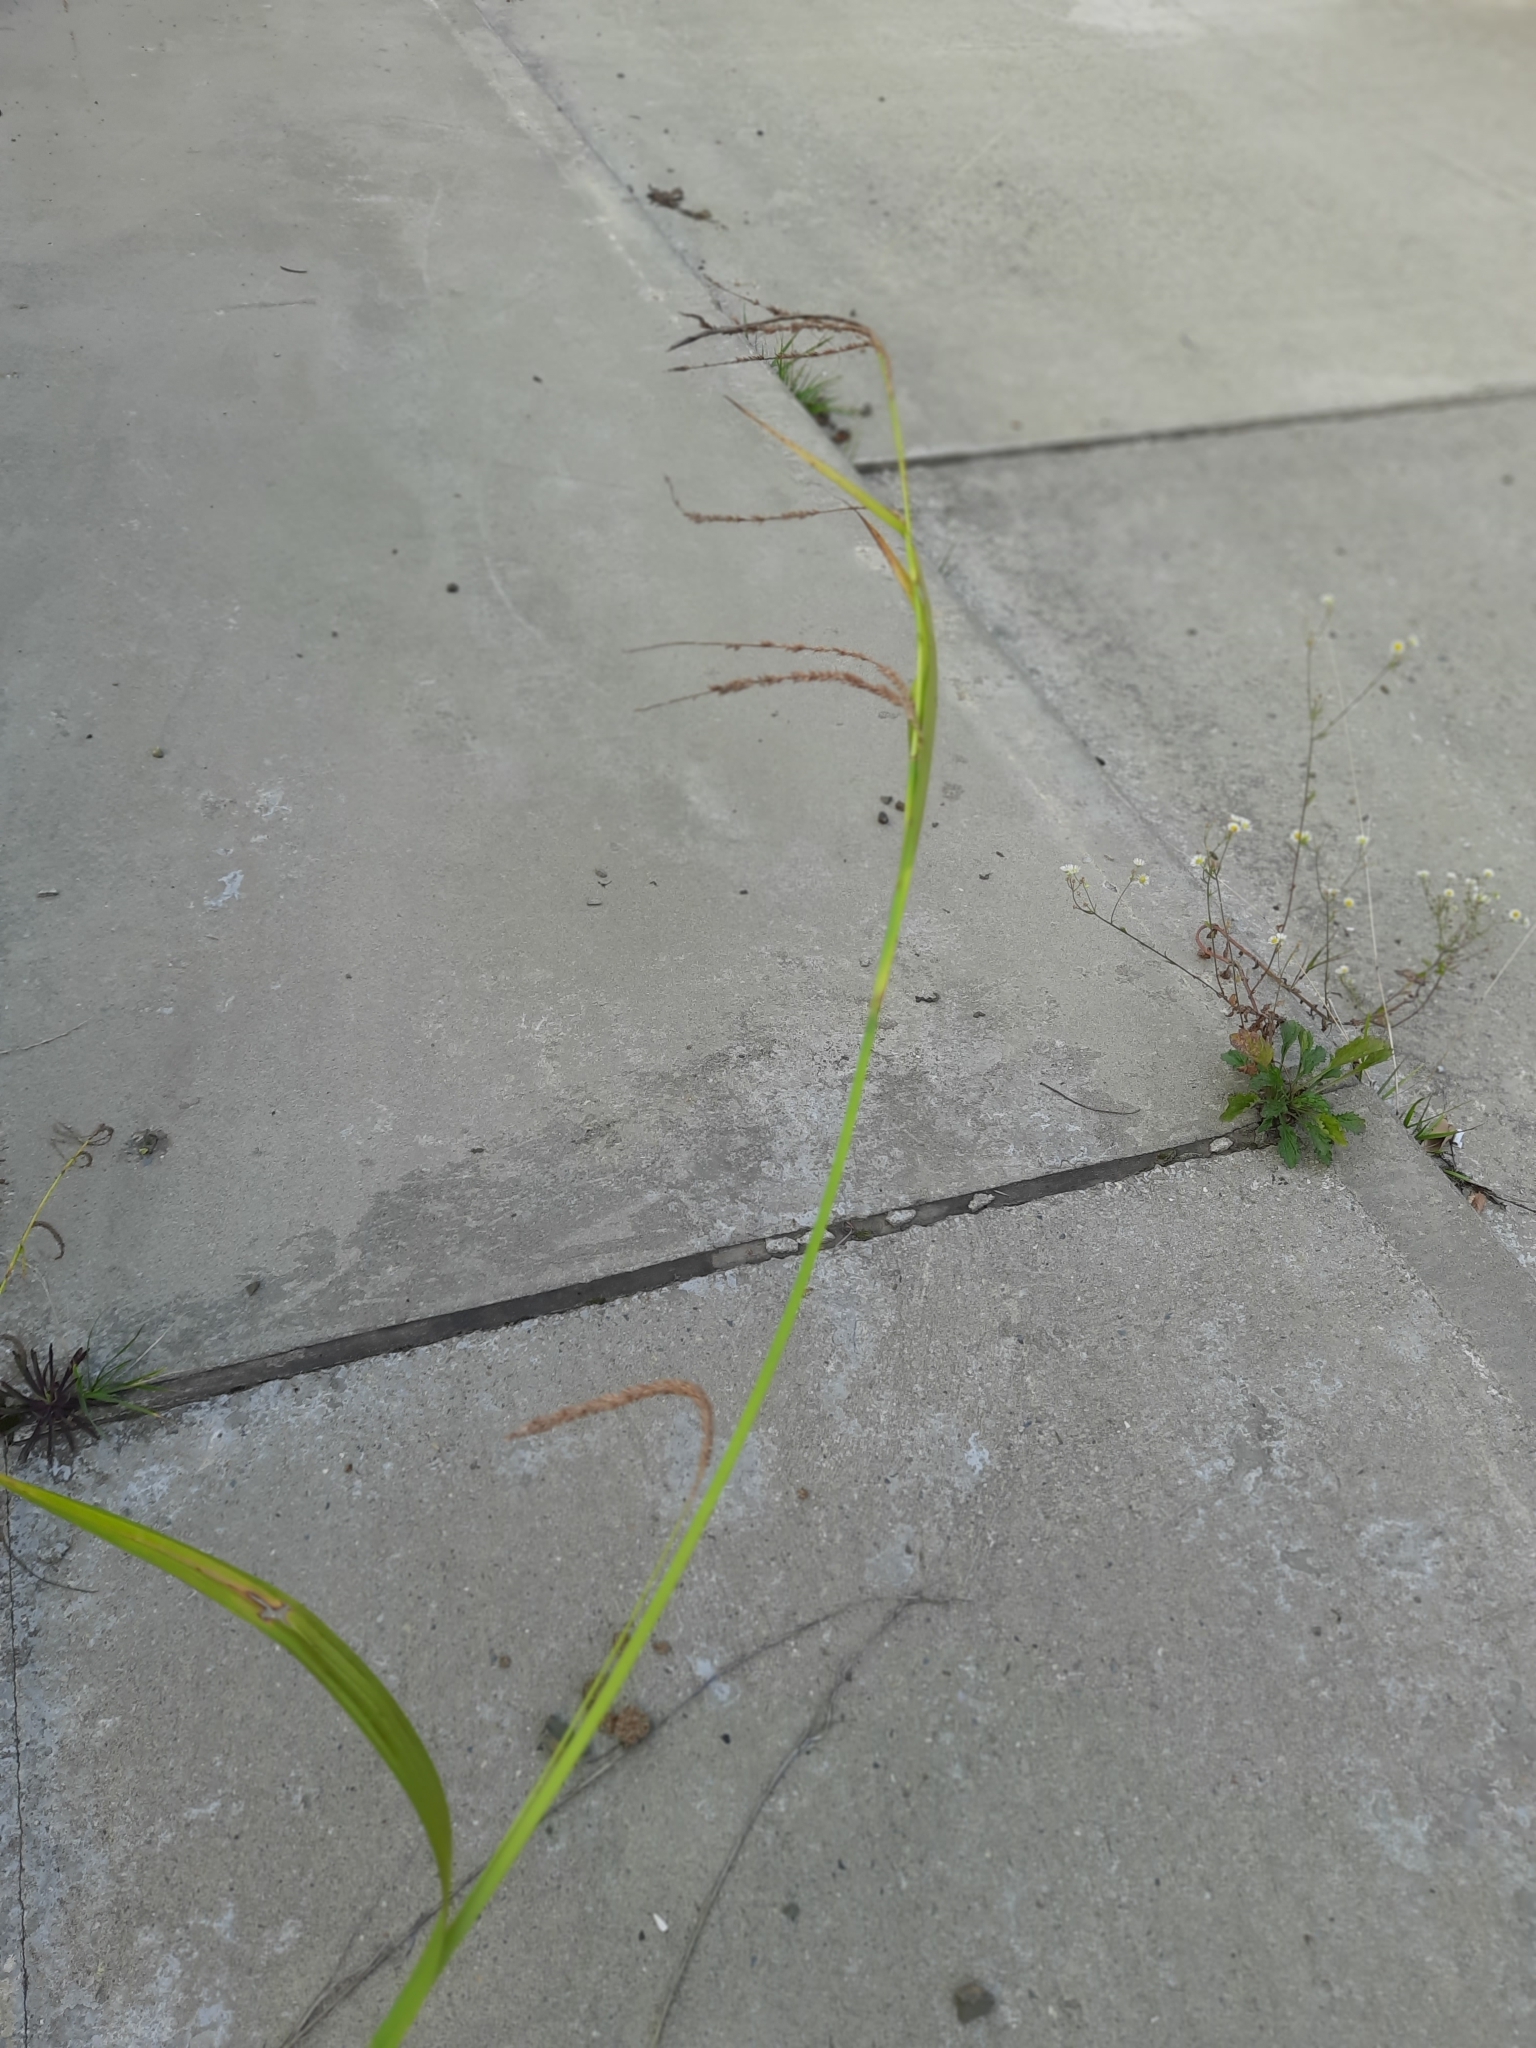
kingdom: Plantae
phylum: Tracheophyta
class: Liliopsida
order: Poales
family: Cyperaceae
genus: Carex
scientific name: Carex pendula
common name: Pendulous sedge
